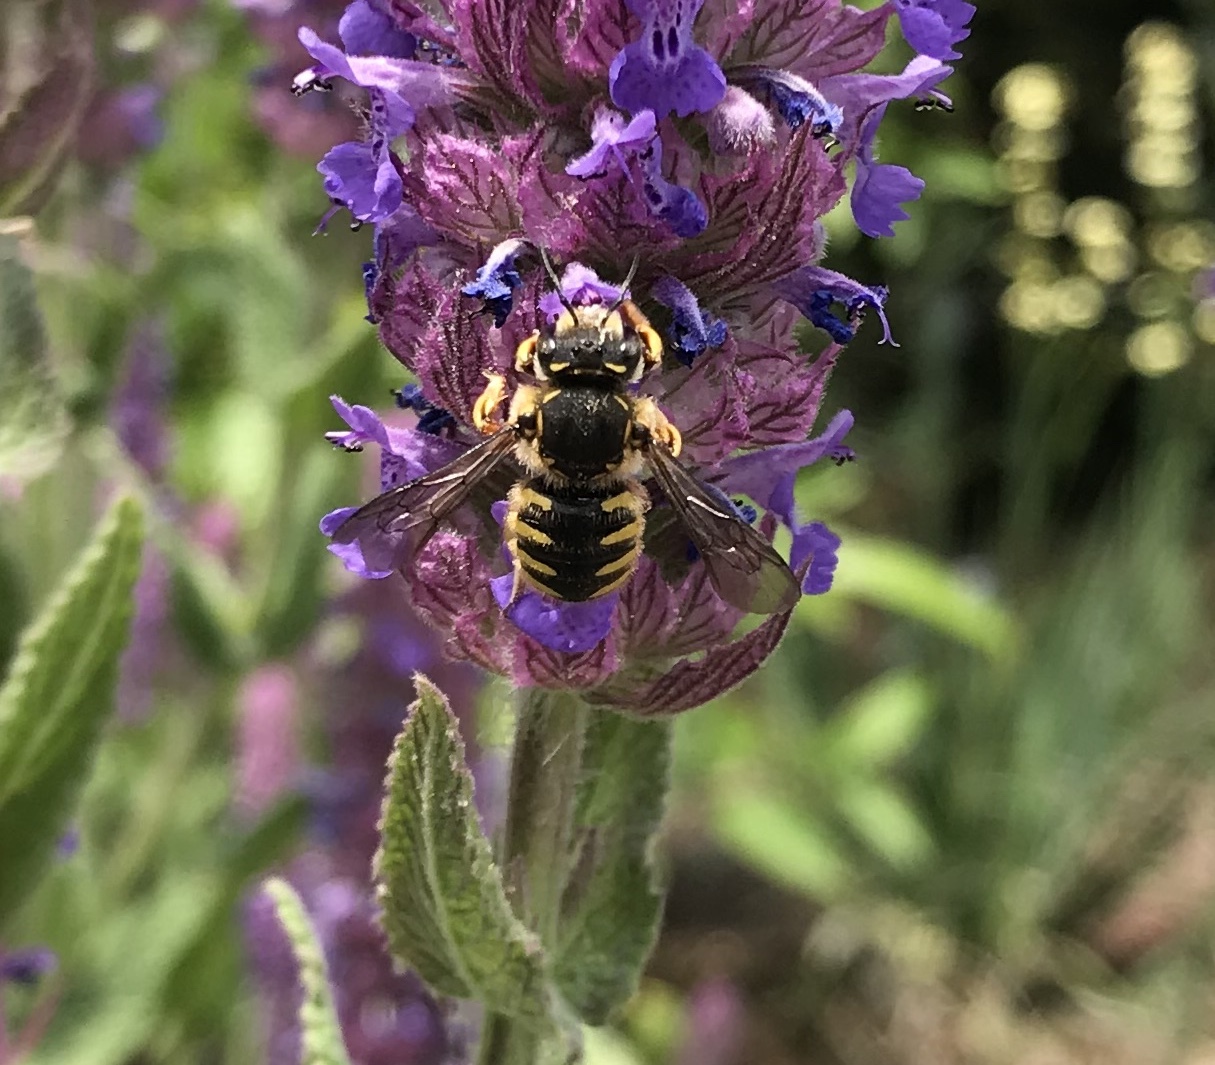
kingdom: Animalia
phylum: Arthropoda
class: Insecta
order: Hymenoptera
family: Megachilidae
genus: Anthidium
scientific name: Anthidium manicatum
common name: Wool carder bee
